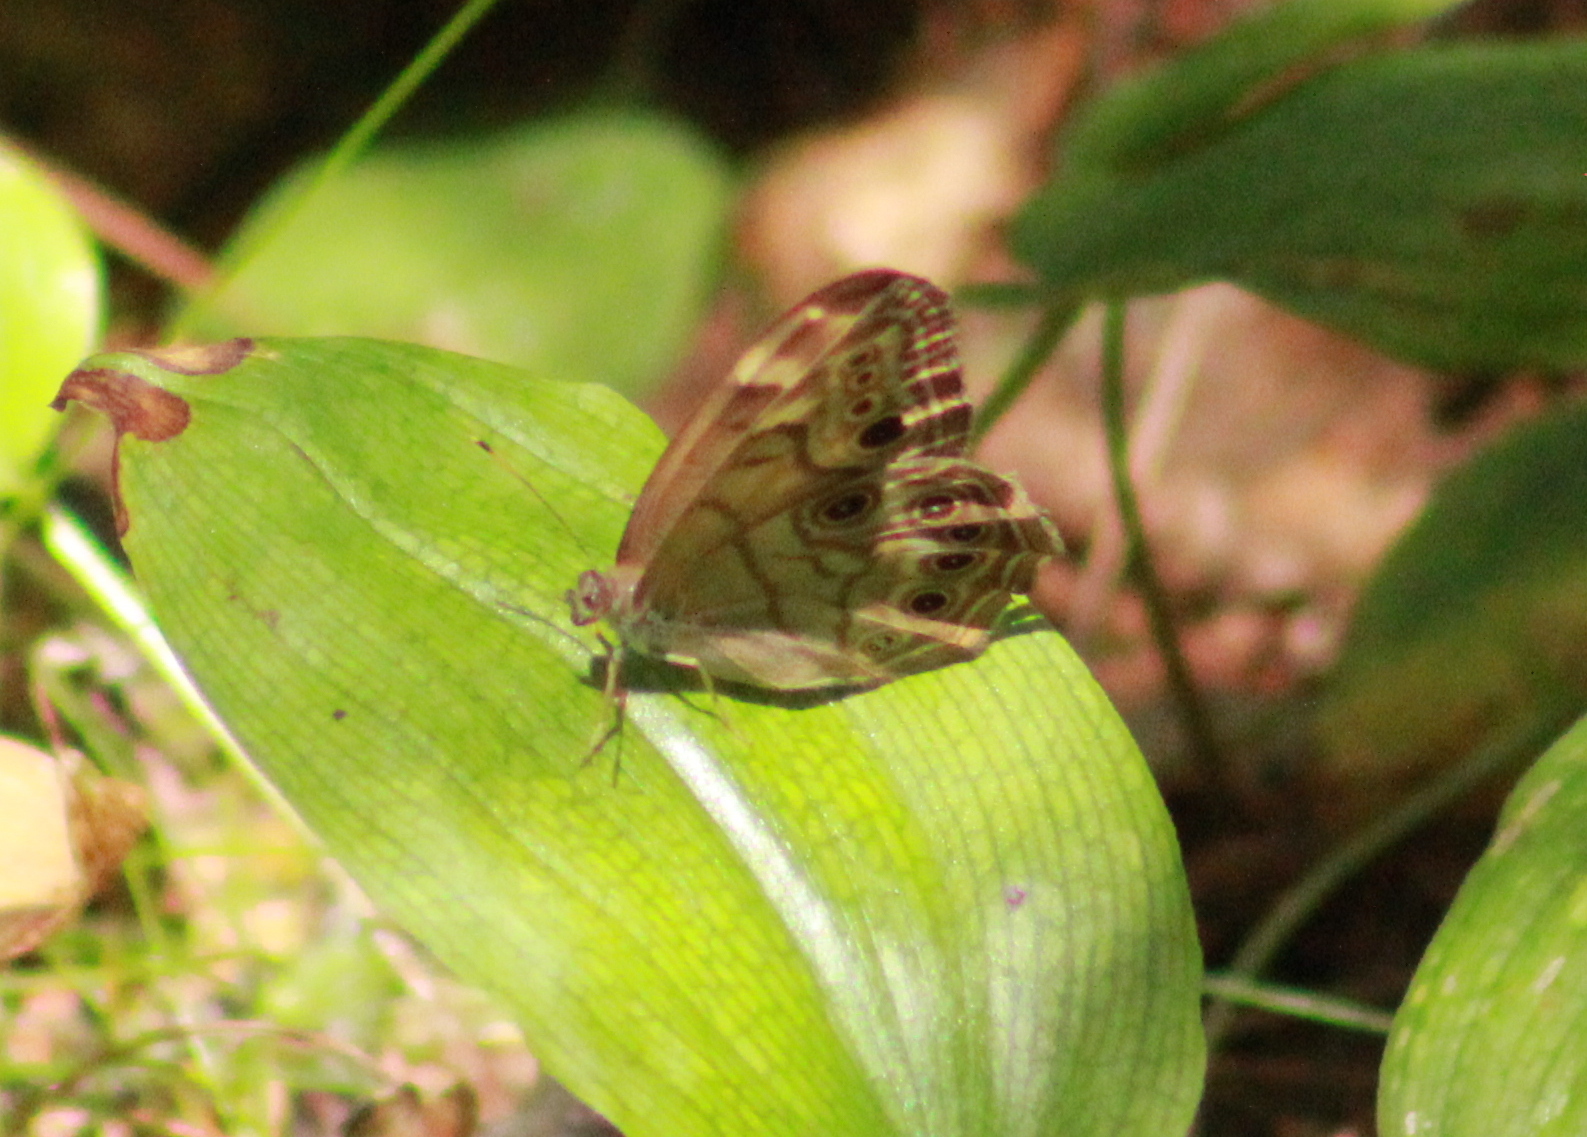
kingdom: Animalia
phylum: Arthropoda
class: Insecta
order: Lepidoptera
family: Nymphalidae
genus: Lethe
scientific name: Lethe anthedon
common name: Northern pearly-eye
